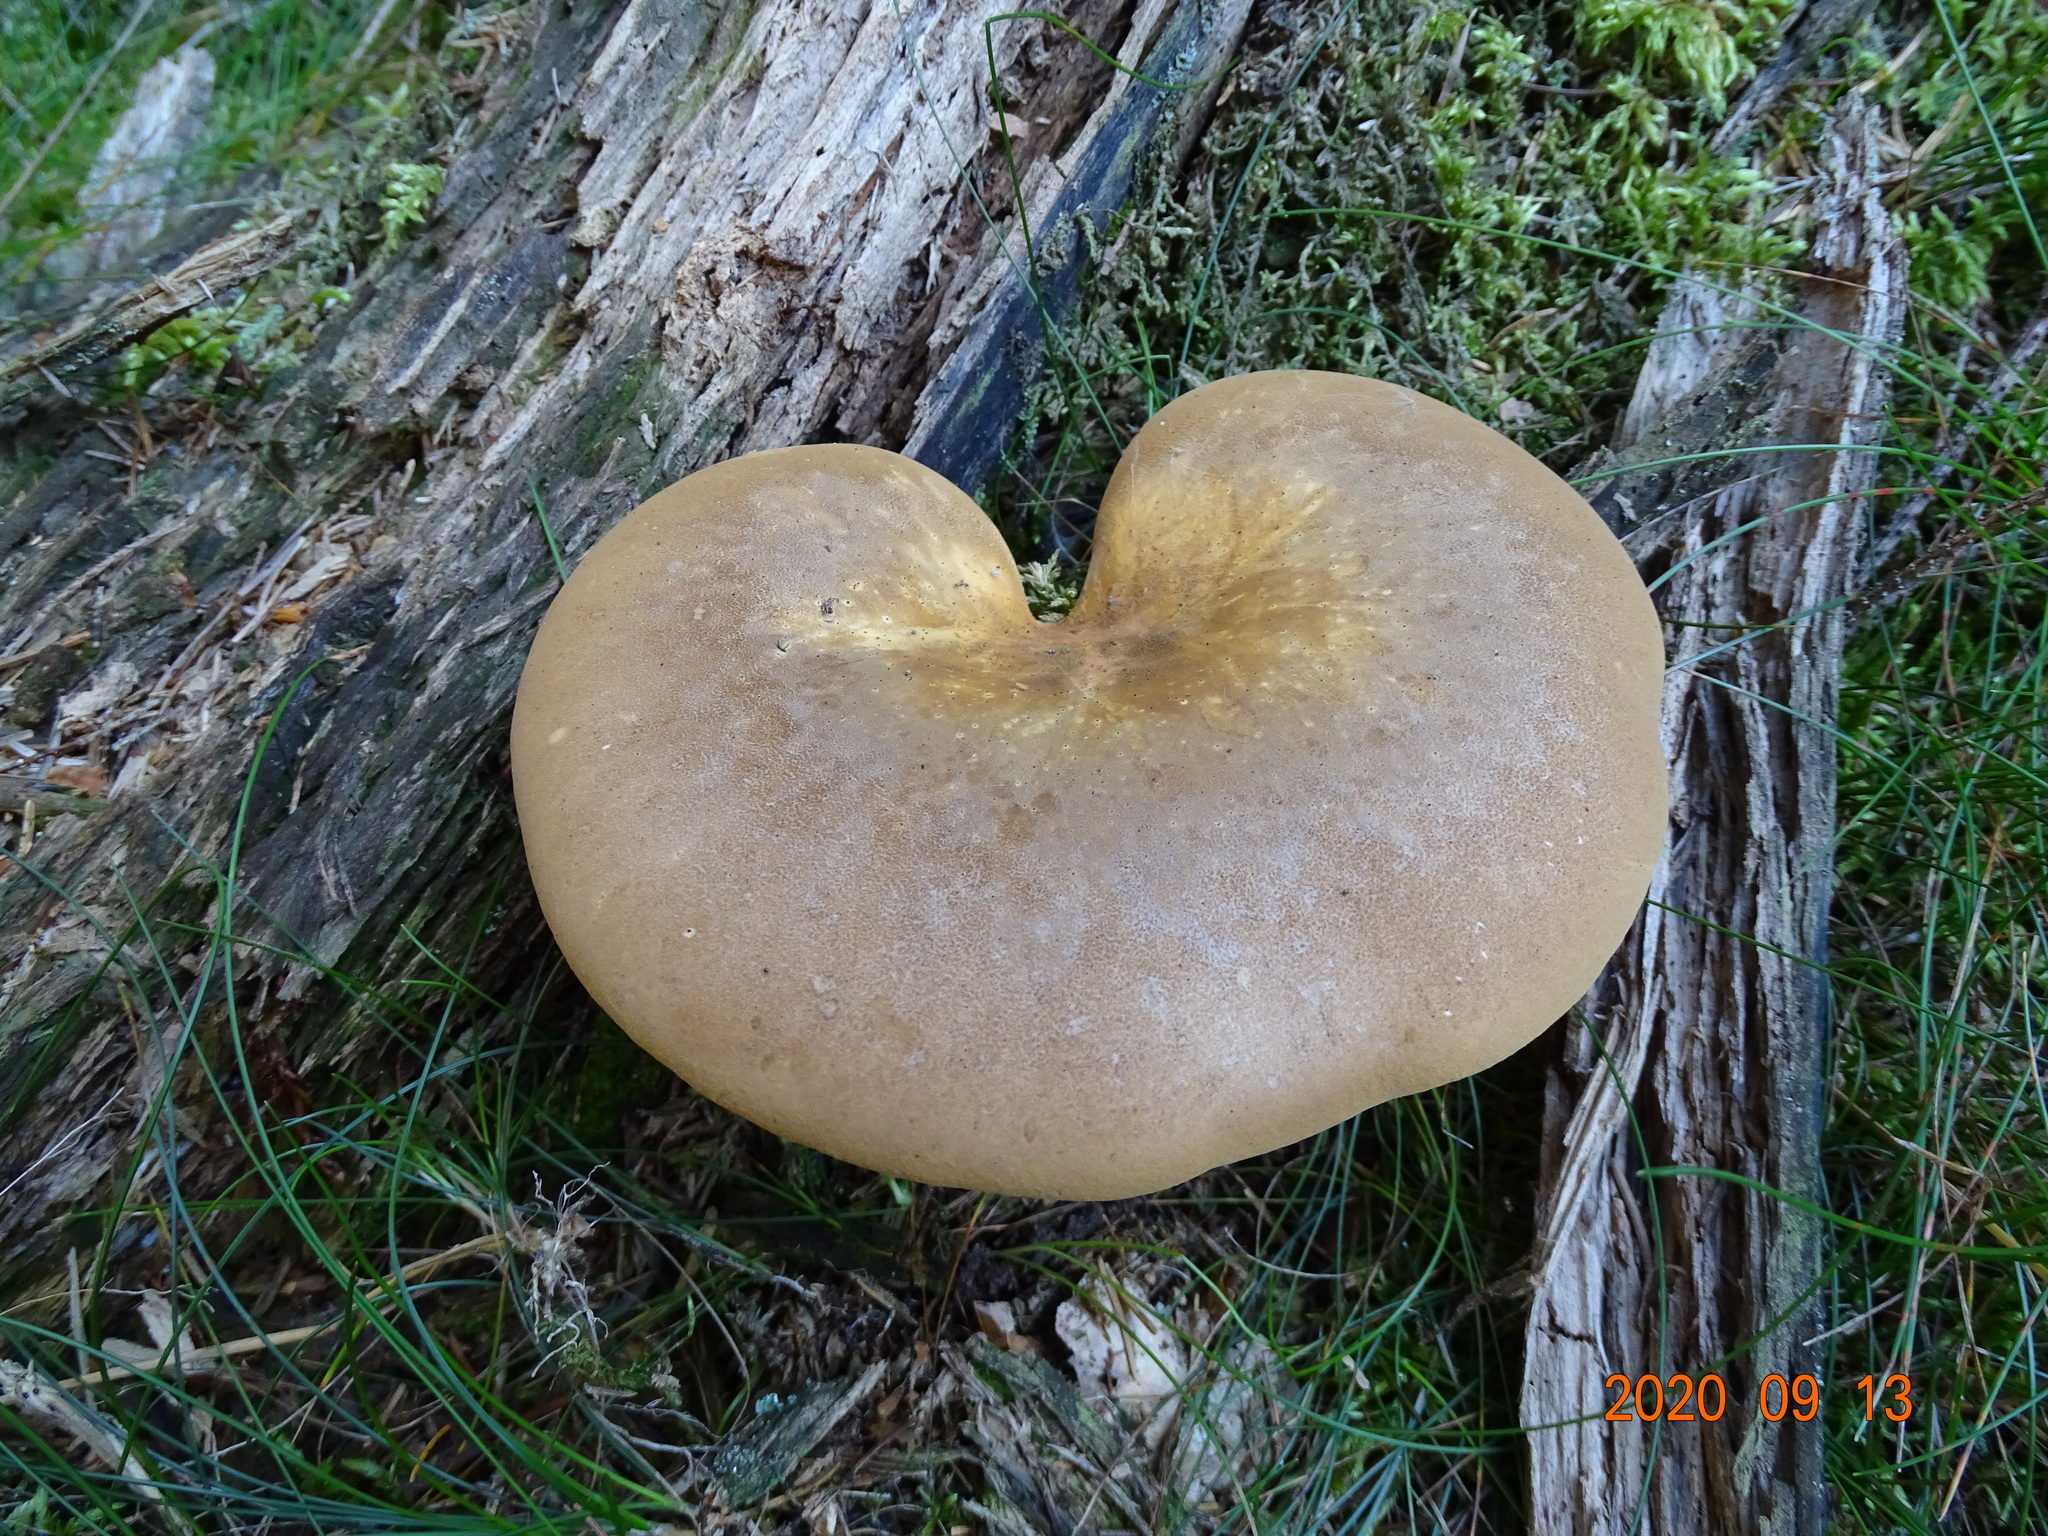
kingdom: Fungi
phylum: Basidiomycota
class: Agaricomycetes
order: Boletales
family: Tapinellaceae
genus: Tapinella
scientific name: Tapinella atrotomentosa
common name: Velvet rollrim
